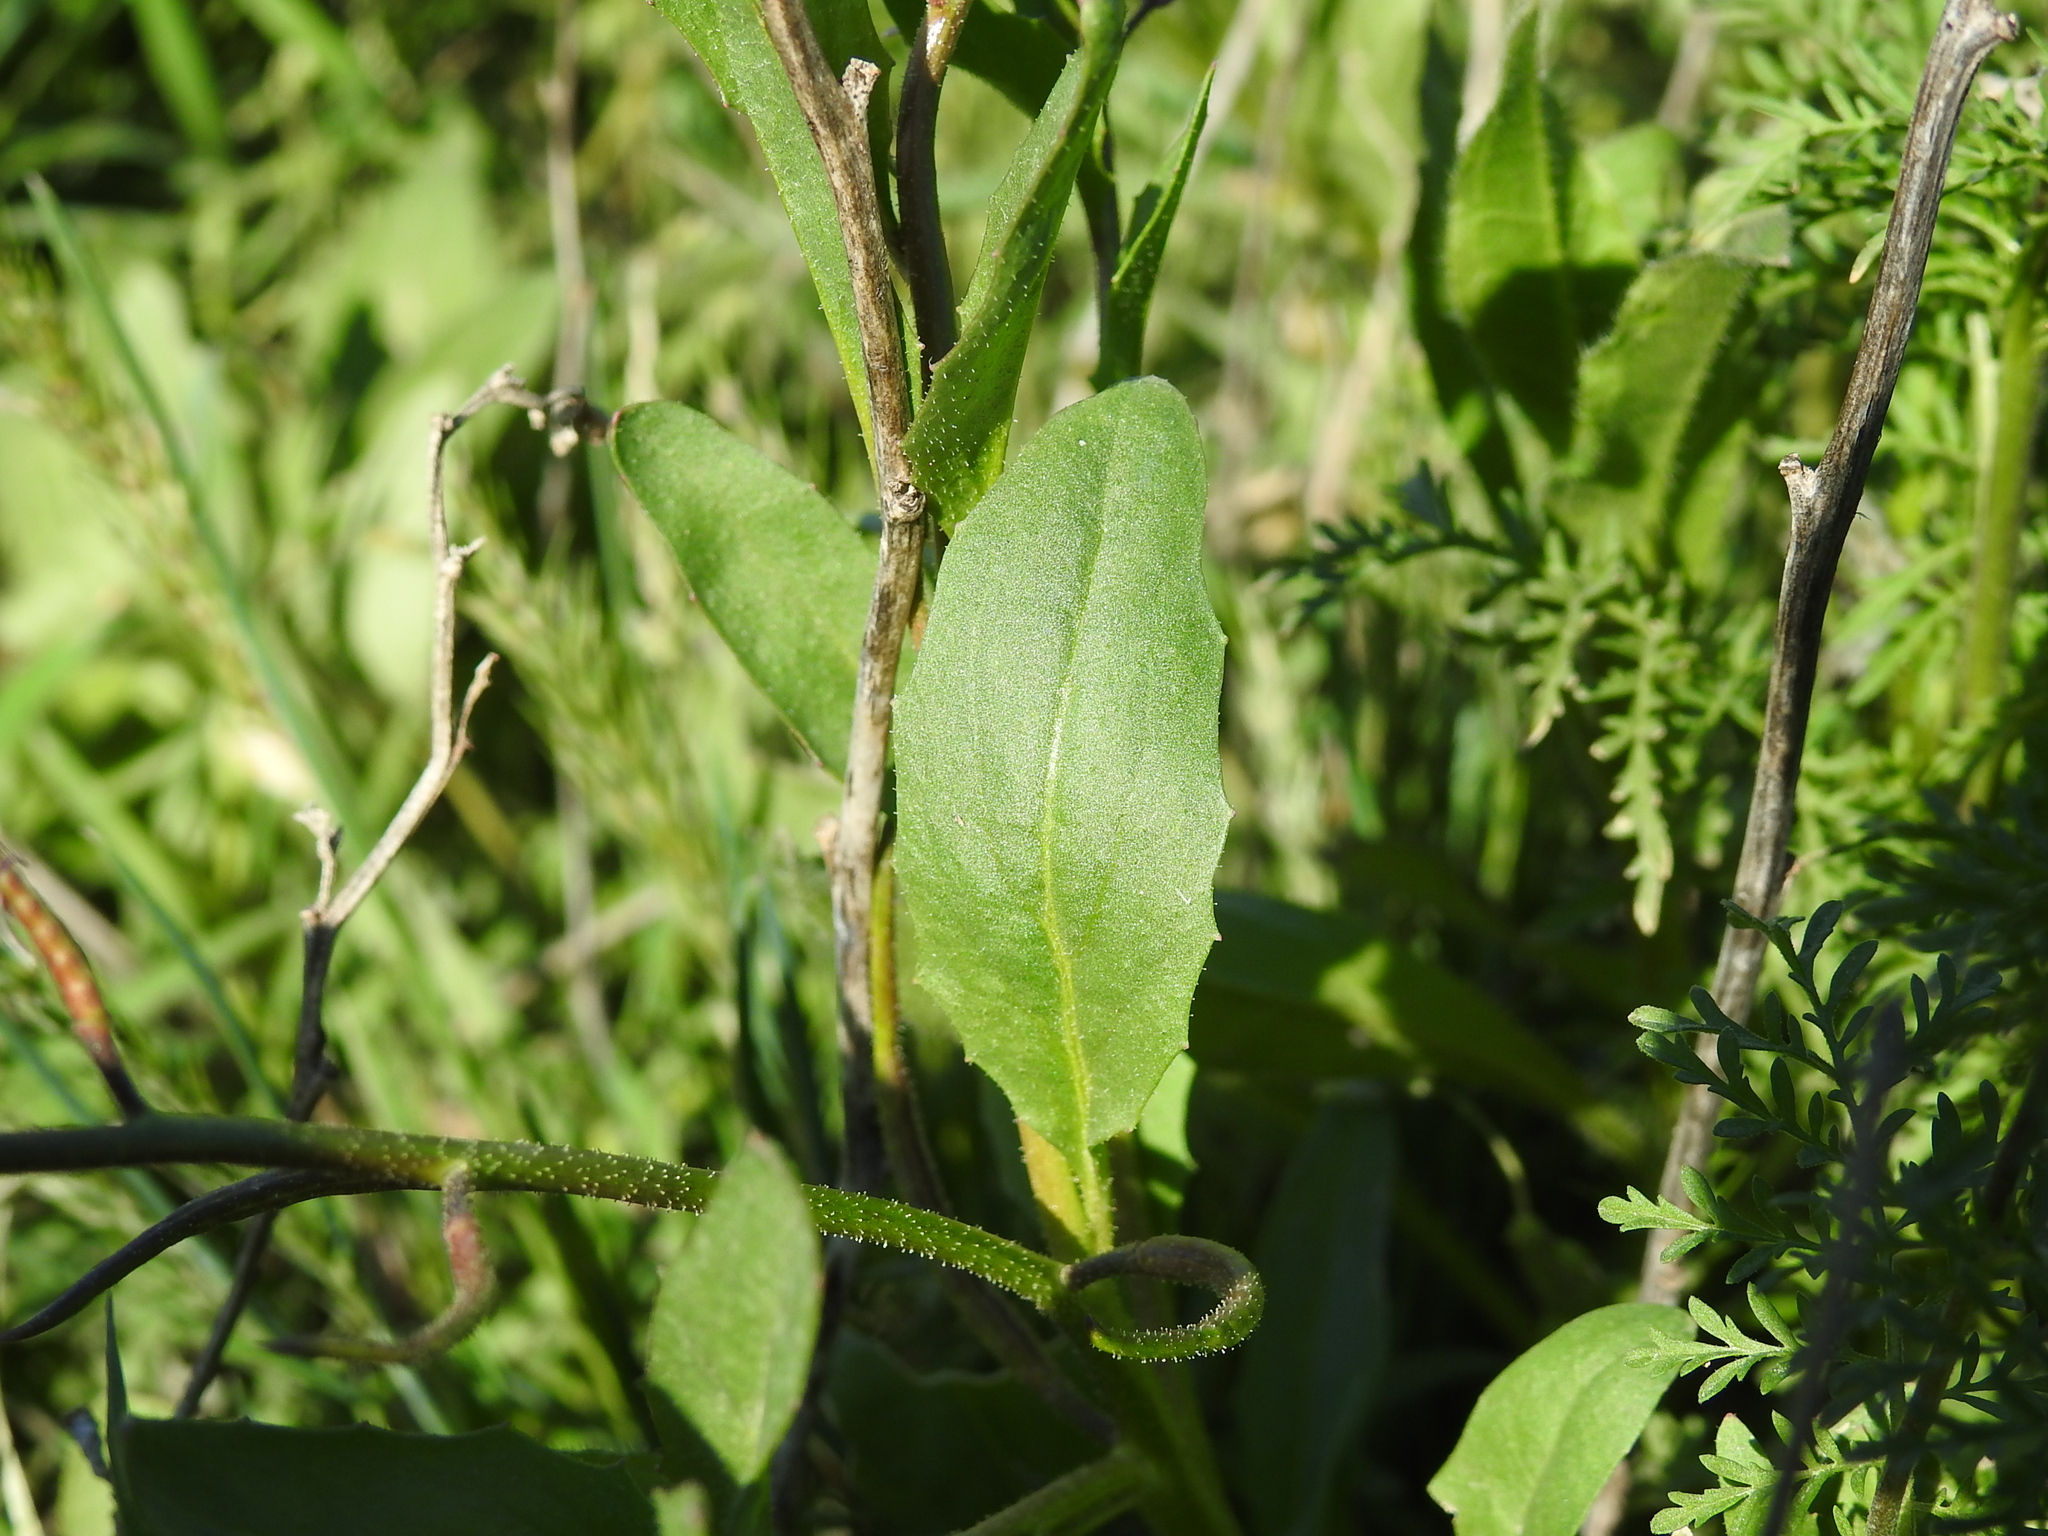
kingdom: Plantae
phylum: Tracheophyta
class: Magnoliopsida
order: Brassicales
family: Brassicaceae
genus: Chorispora
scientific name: Chorispora tenella
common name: Crossflower
